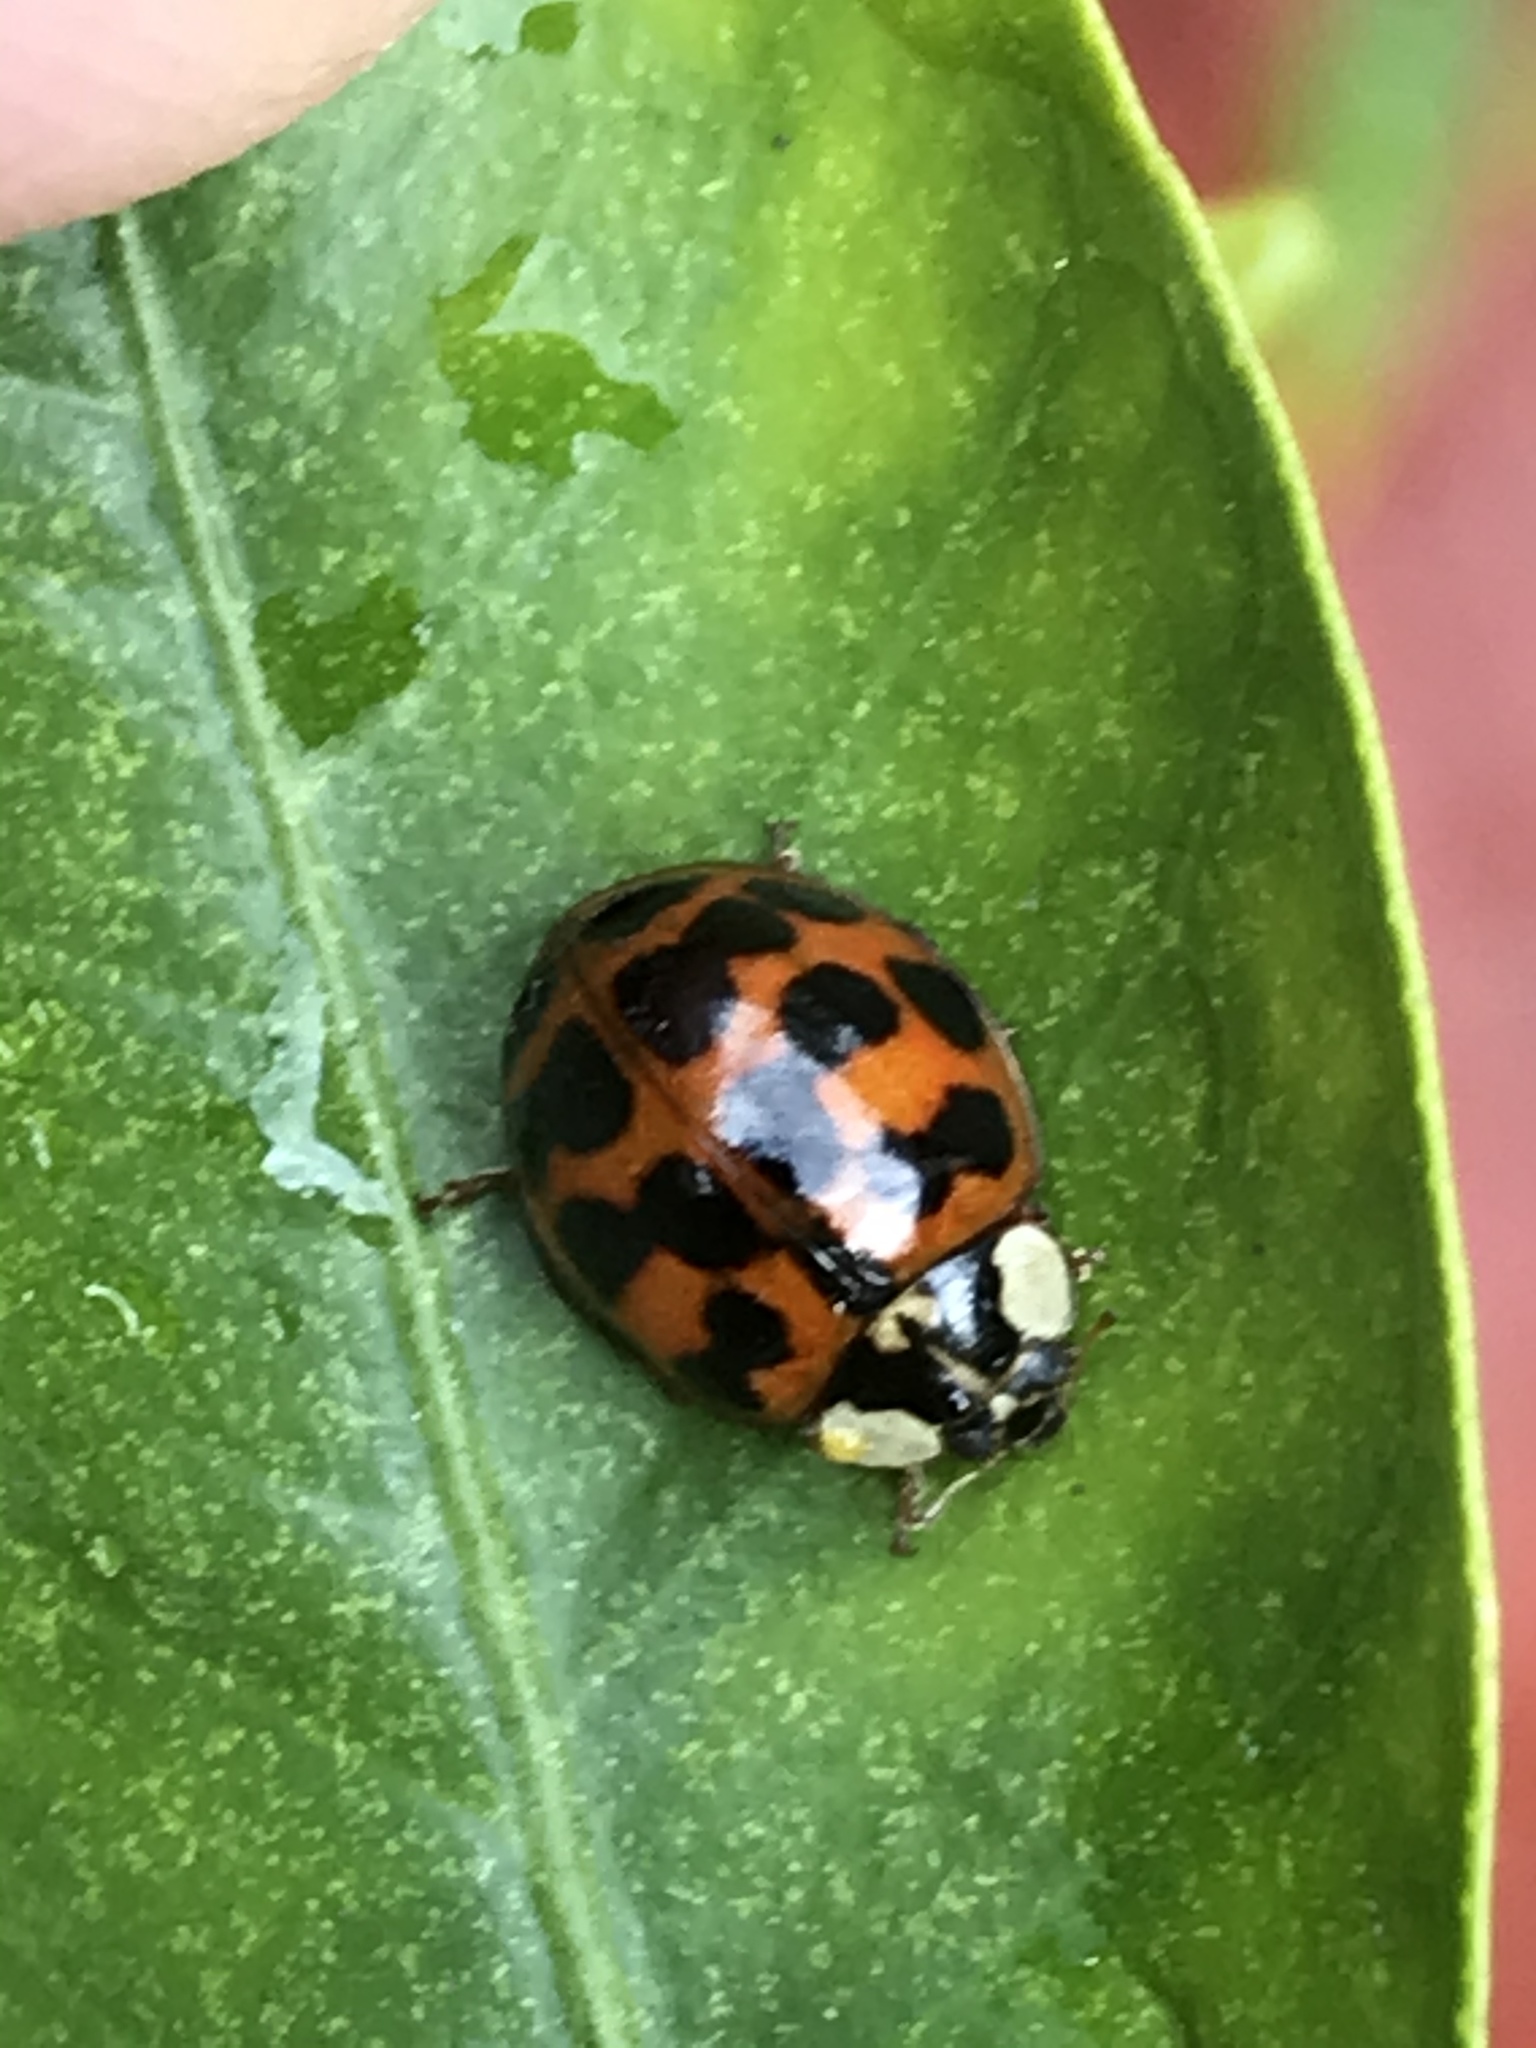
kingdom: Animalia
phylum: Arthropoda
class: Insecta
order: Coleoptera
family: Coccinellidae
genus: Harmonia
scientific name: Harmonia axyridis
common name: Harlequin ladybird
